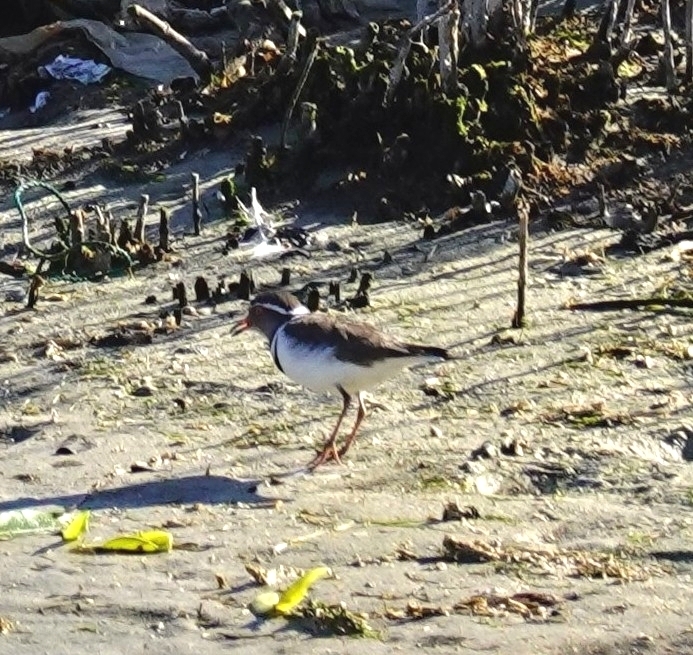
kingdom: Animalia
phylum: Chordata
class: Aves
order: Charadriiformes
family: Charadriidae
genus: Charadrius
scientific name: Charadrius tricollaris
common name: Three-banded plover
